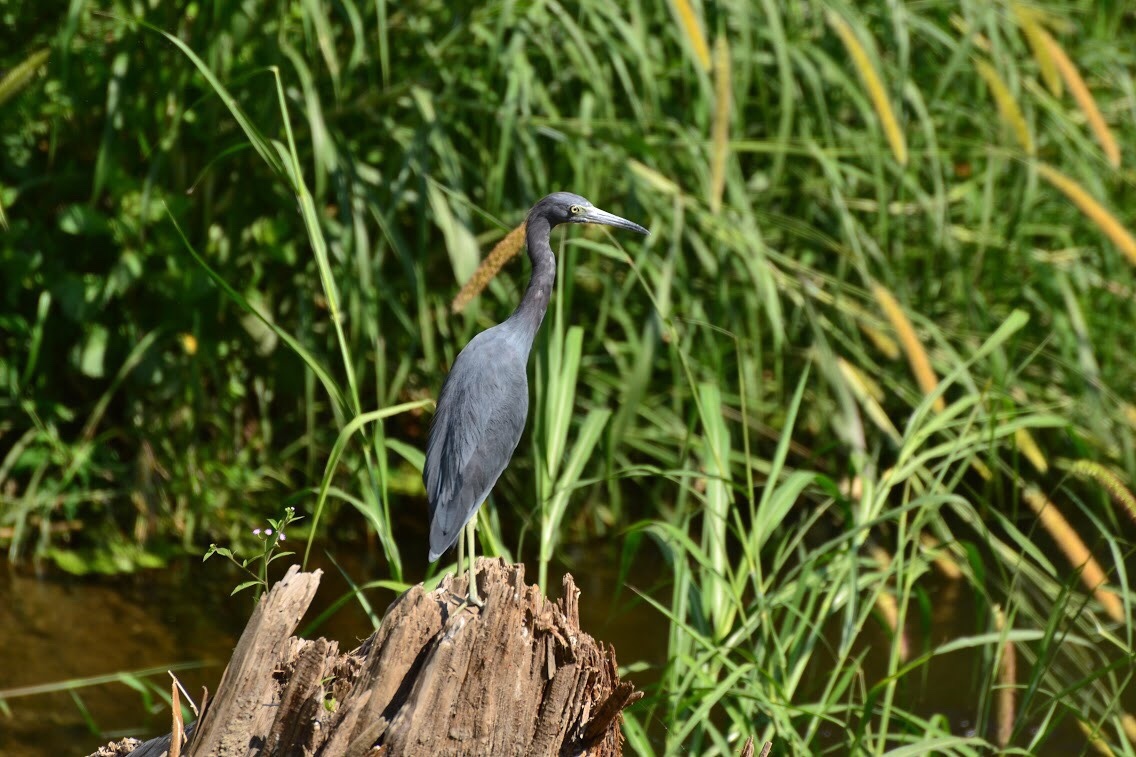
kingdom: Animalia
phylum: Chordata
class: Aves
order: Pelecaniformes
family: Ardeidae
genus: Egretta
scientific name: Egretta caerulea
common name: Little blue heron
